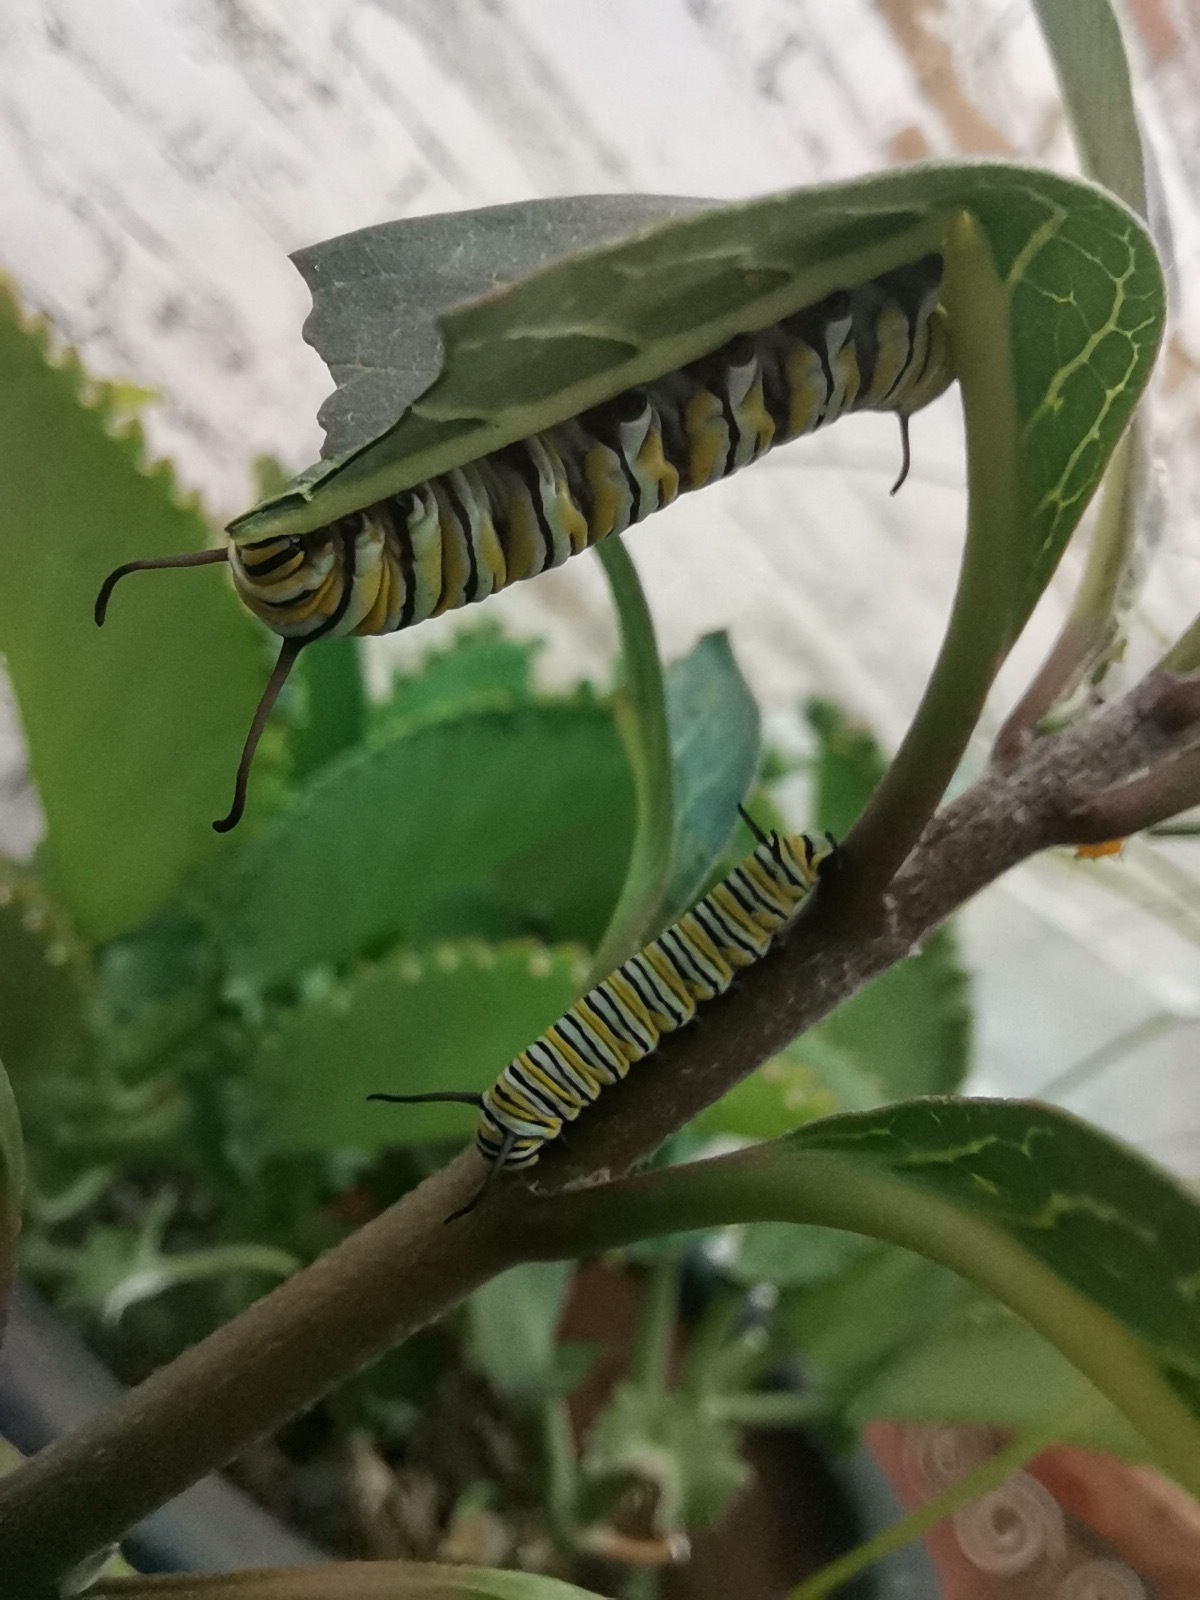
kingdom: Animalia
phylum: Arthropoda
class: Insecta
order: Lepidoptera
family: Nymphalidae
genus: Danaus
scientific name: Danaus plexippus
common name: Monarch
